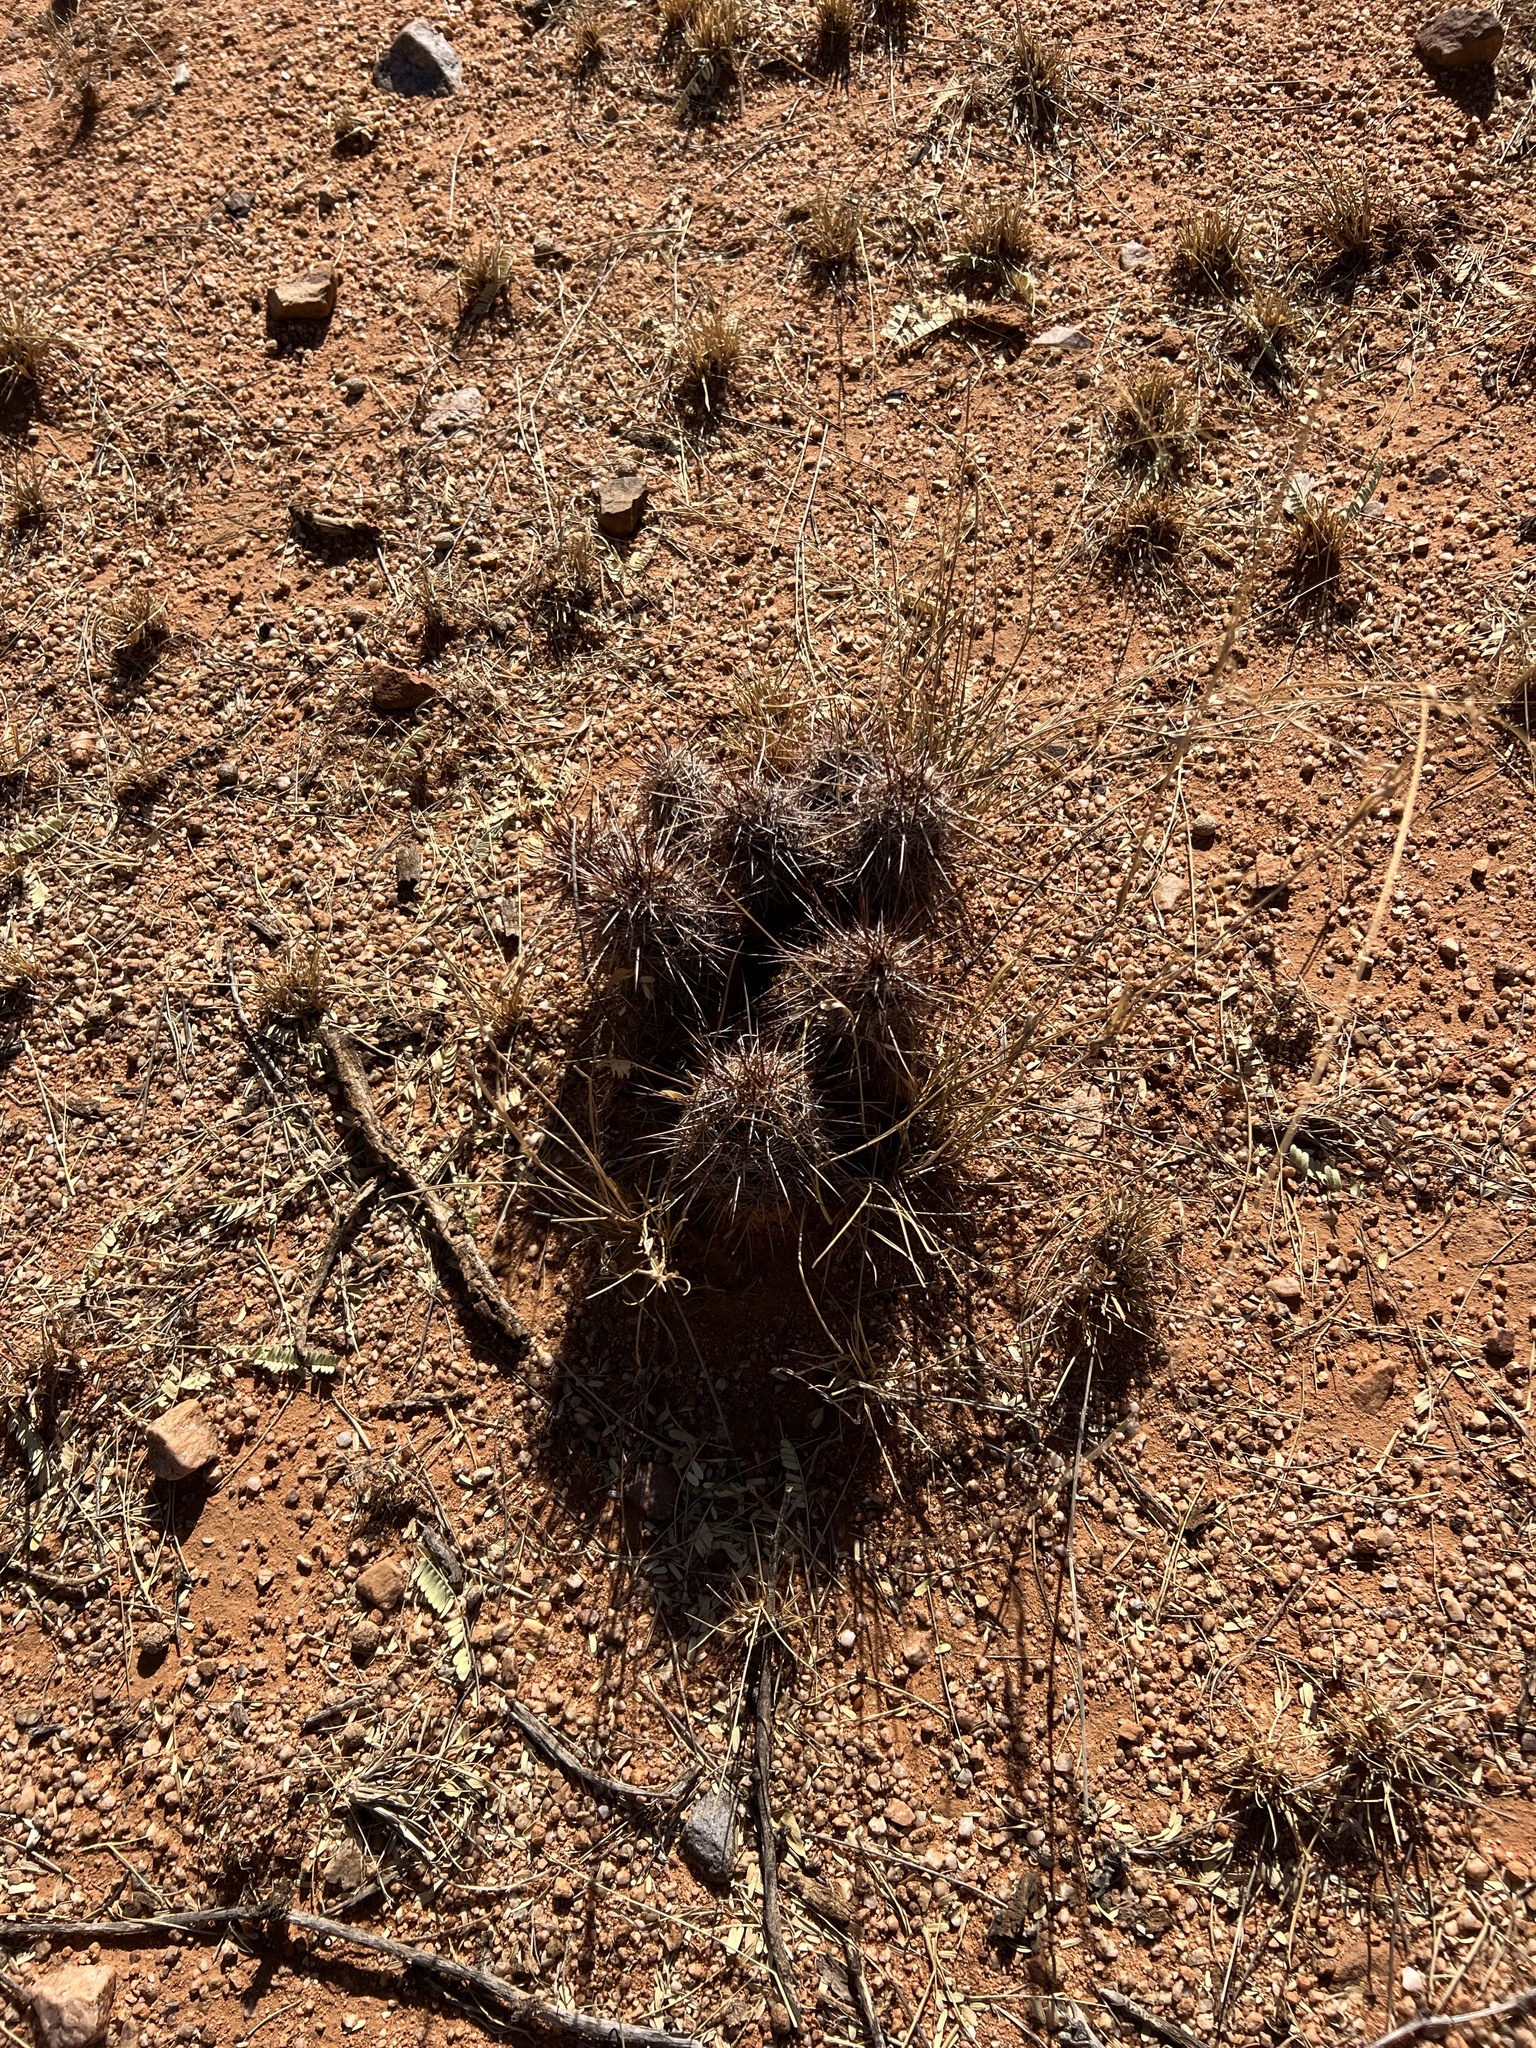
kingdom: Plantae
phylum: Tracheophyta
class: Magnoliopsida
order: Caryophyllales
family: Cactaceae
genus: Echinocereus
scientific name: Echinocereus fasciculatus
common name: Bundle hedgehog
